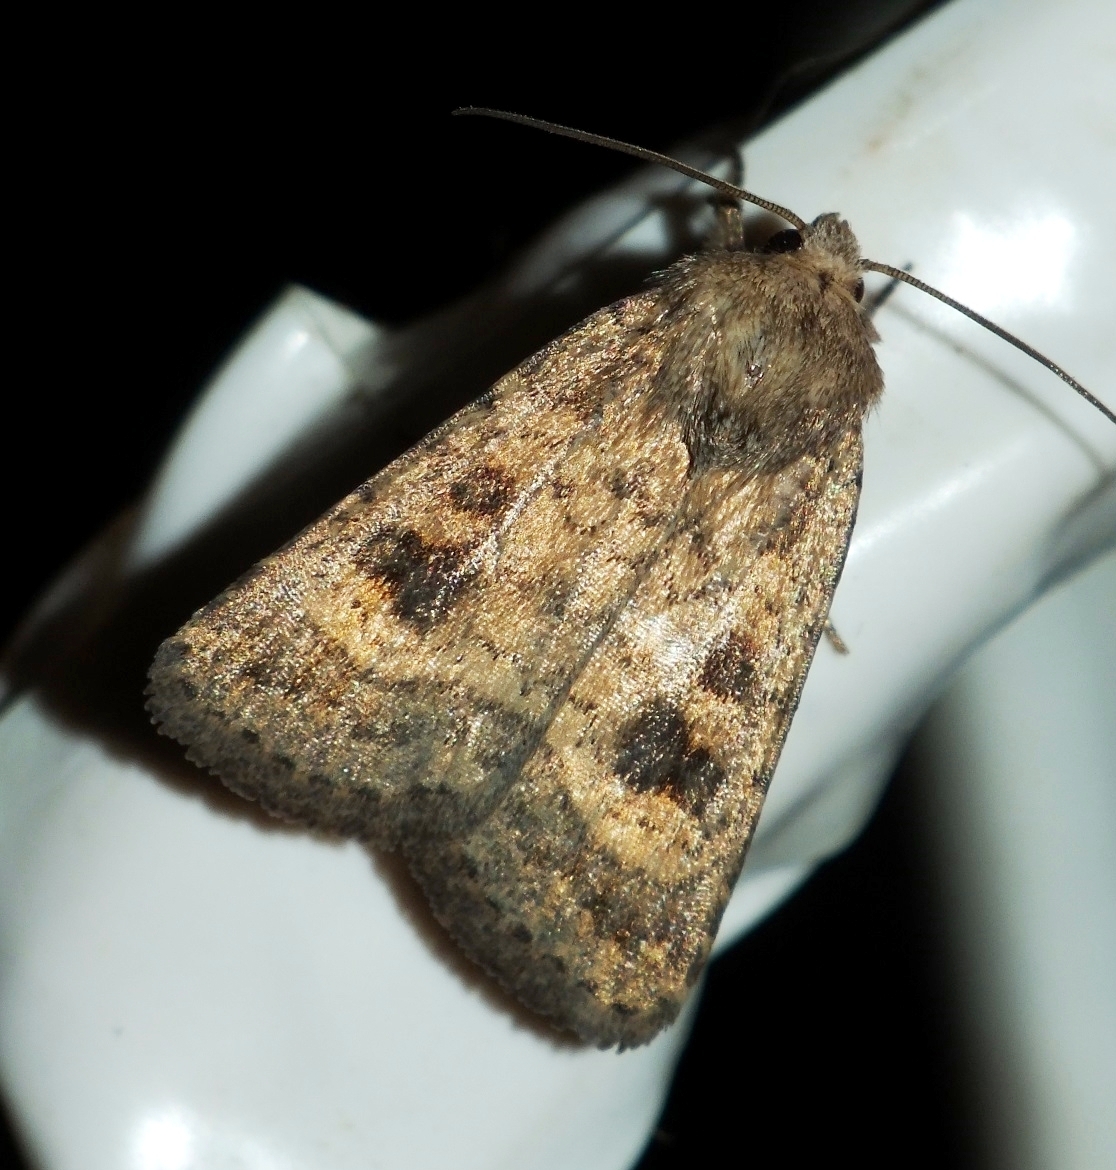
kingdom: Animalia
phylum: Arthropoda
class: Insecta
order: Lepidoptera
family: Noctuidae
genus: Caradrina
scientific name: Caradrina morpheus
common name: Mottled rustic
